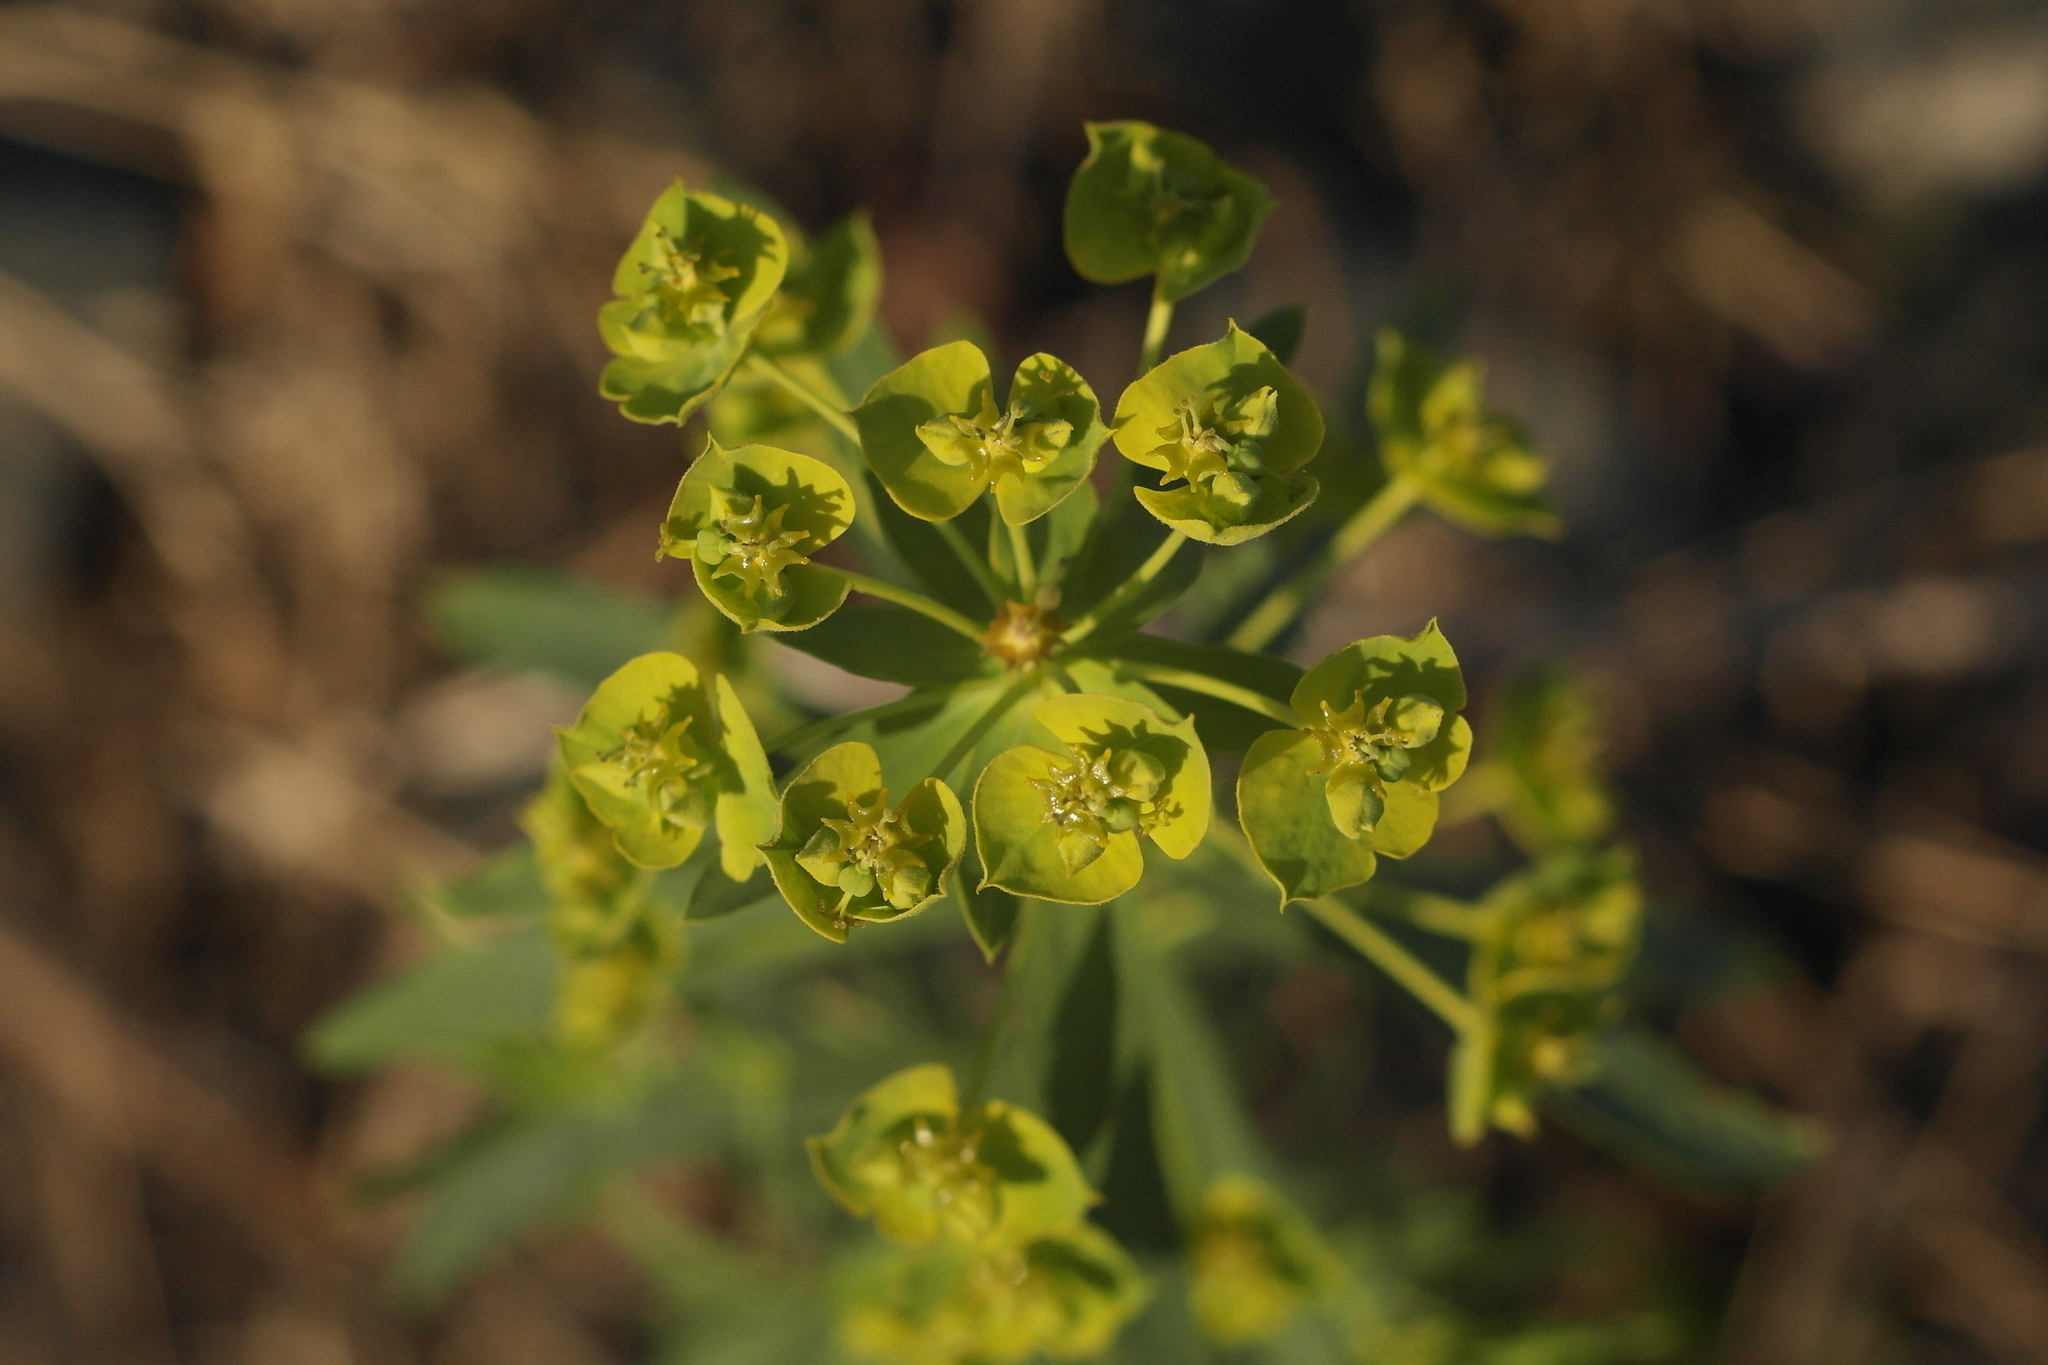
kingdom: Plantae
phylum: Tracheophyta
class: Magnoliopsida
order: Malpighiales
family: Euphorbiaceae
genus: Euphorbia
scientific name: Euphorbia virgata
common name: Leafy spurge
